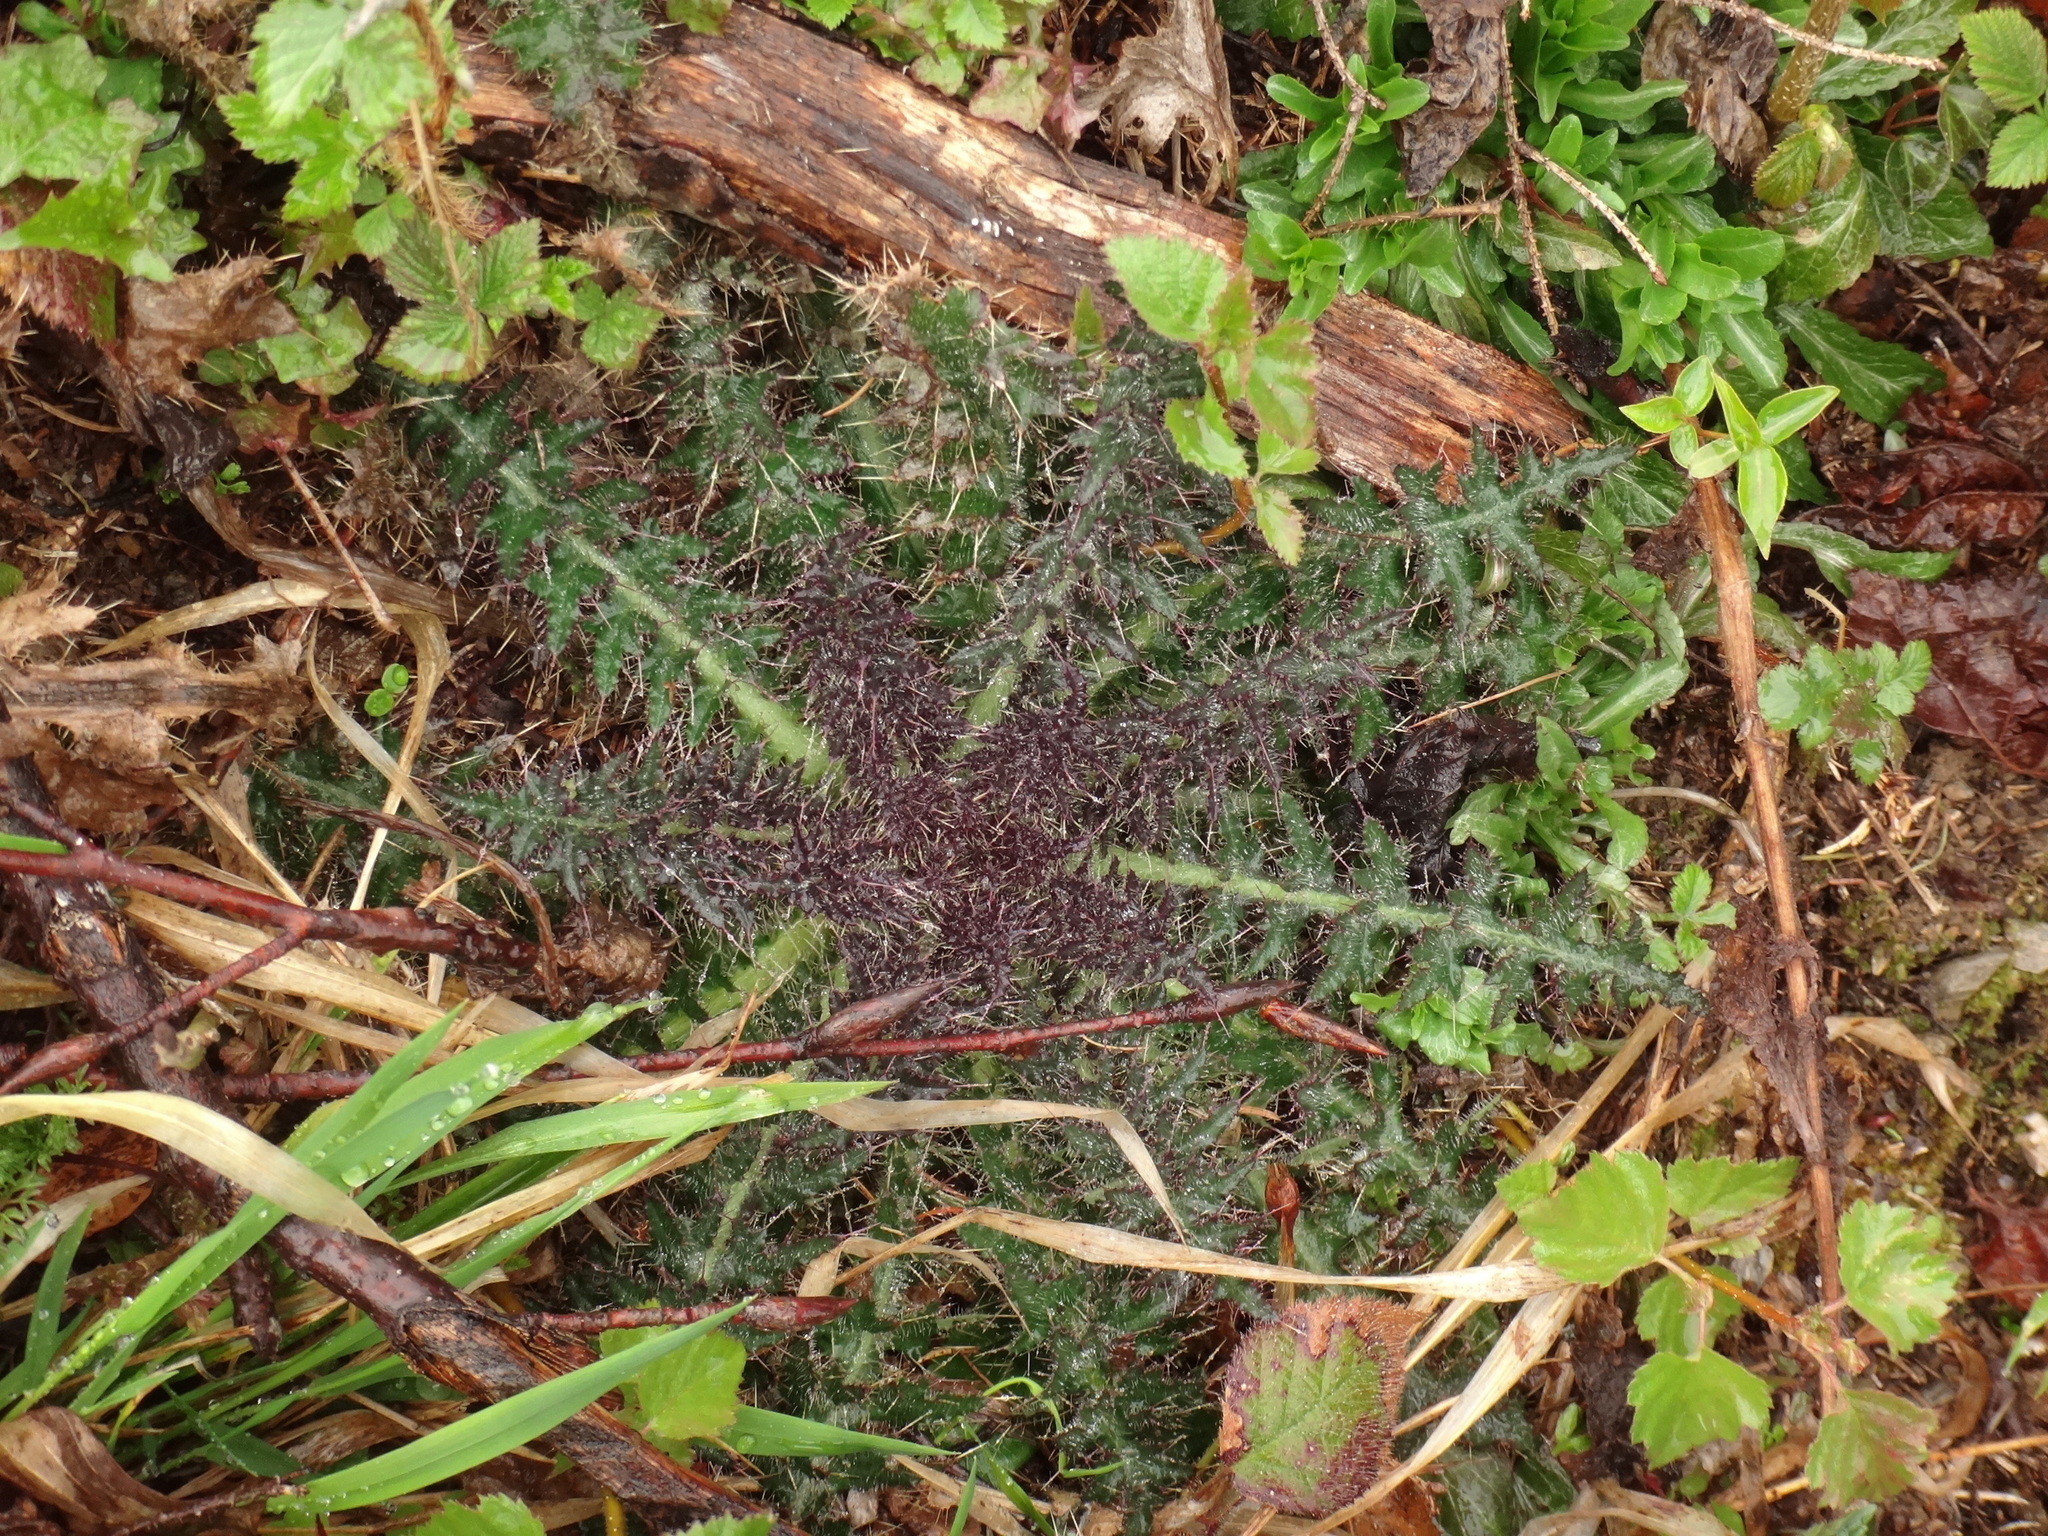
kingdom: Plantae
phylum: Tracheophyta
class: Magnoliopsida
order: Asterales
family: Asteraceae
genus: Cirsium
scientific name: Cirsium palustre
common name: Marsh thistle
